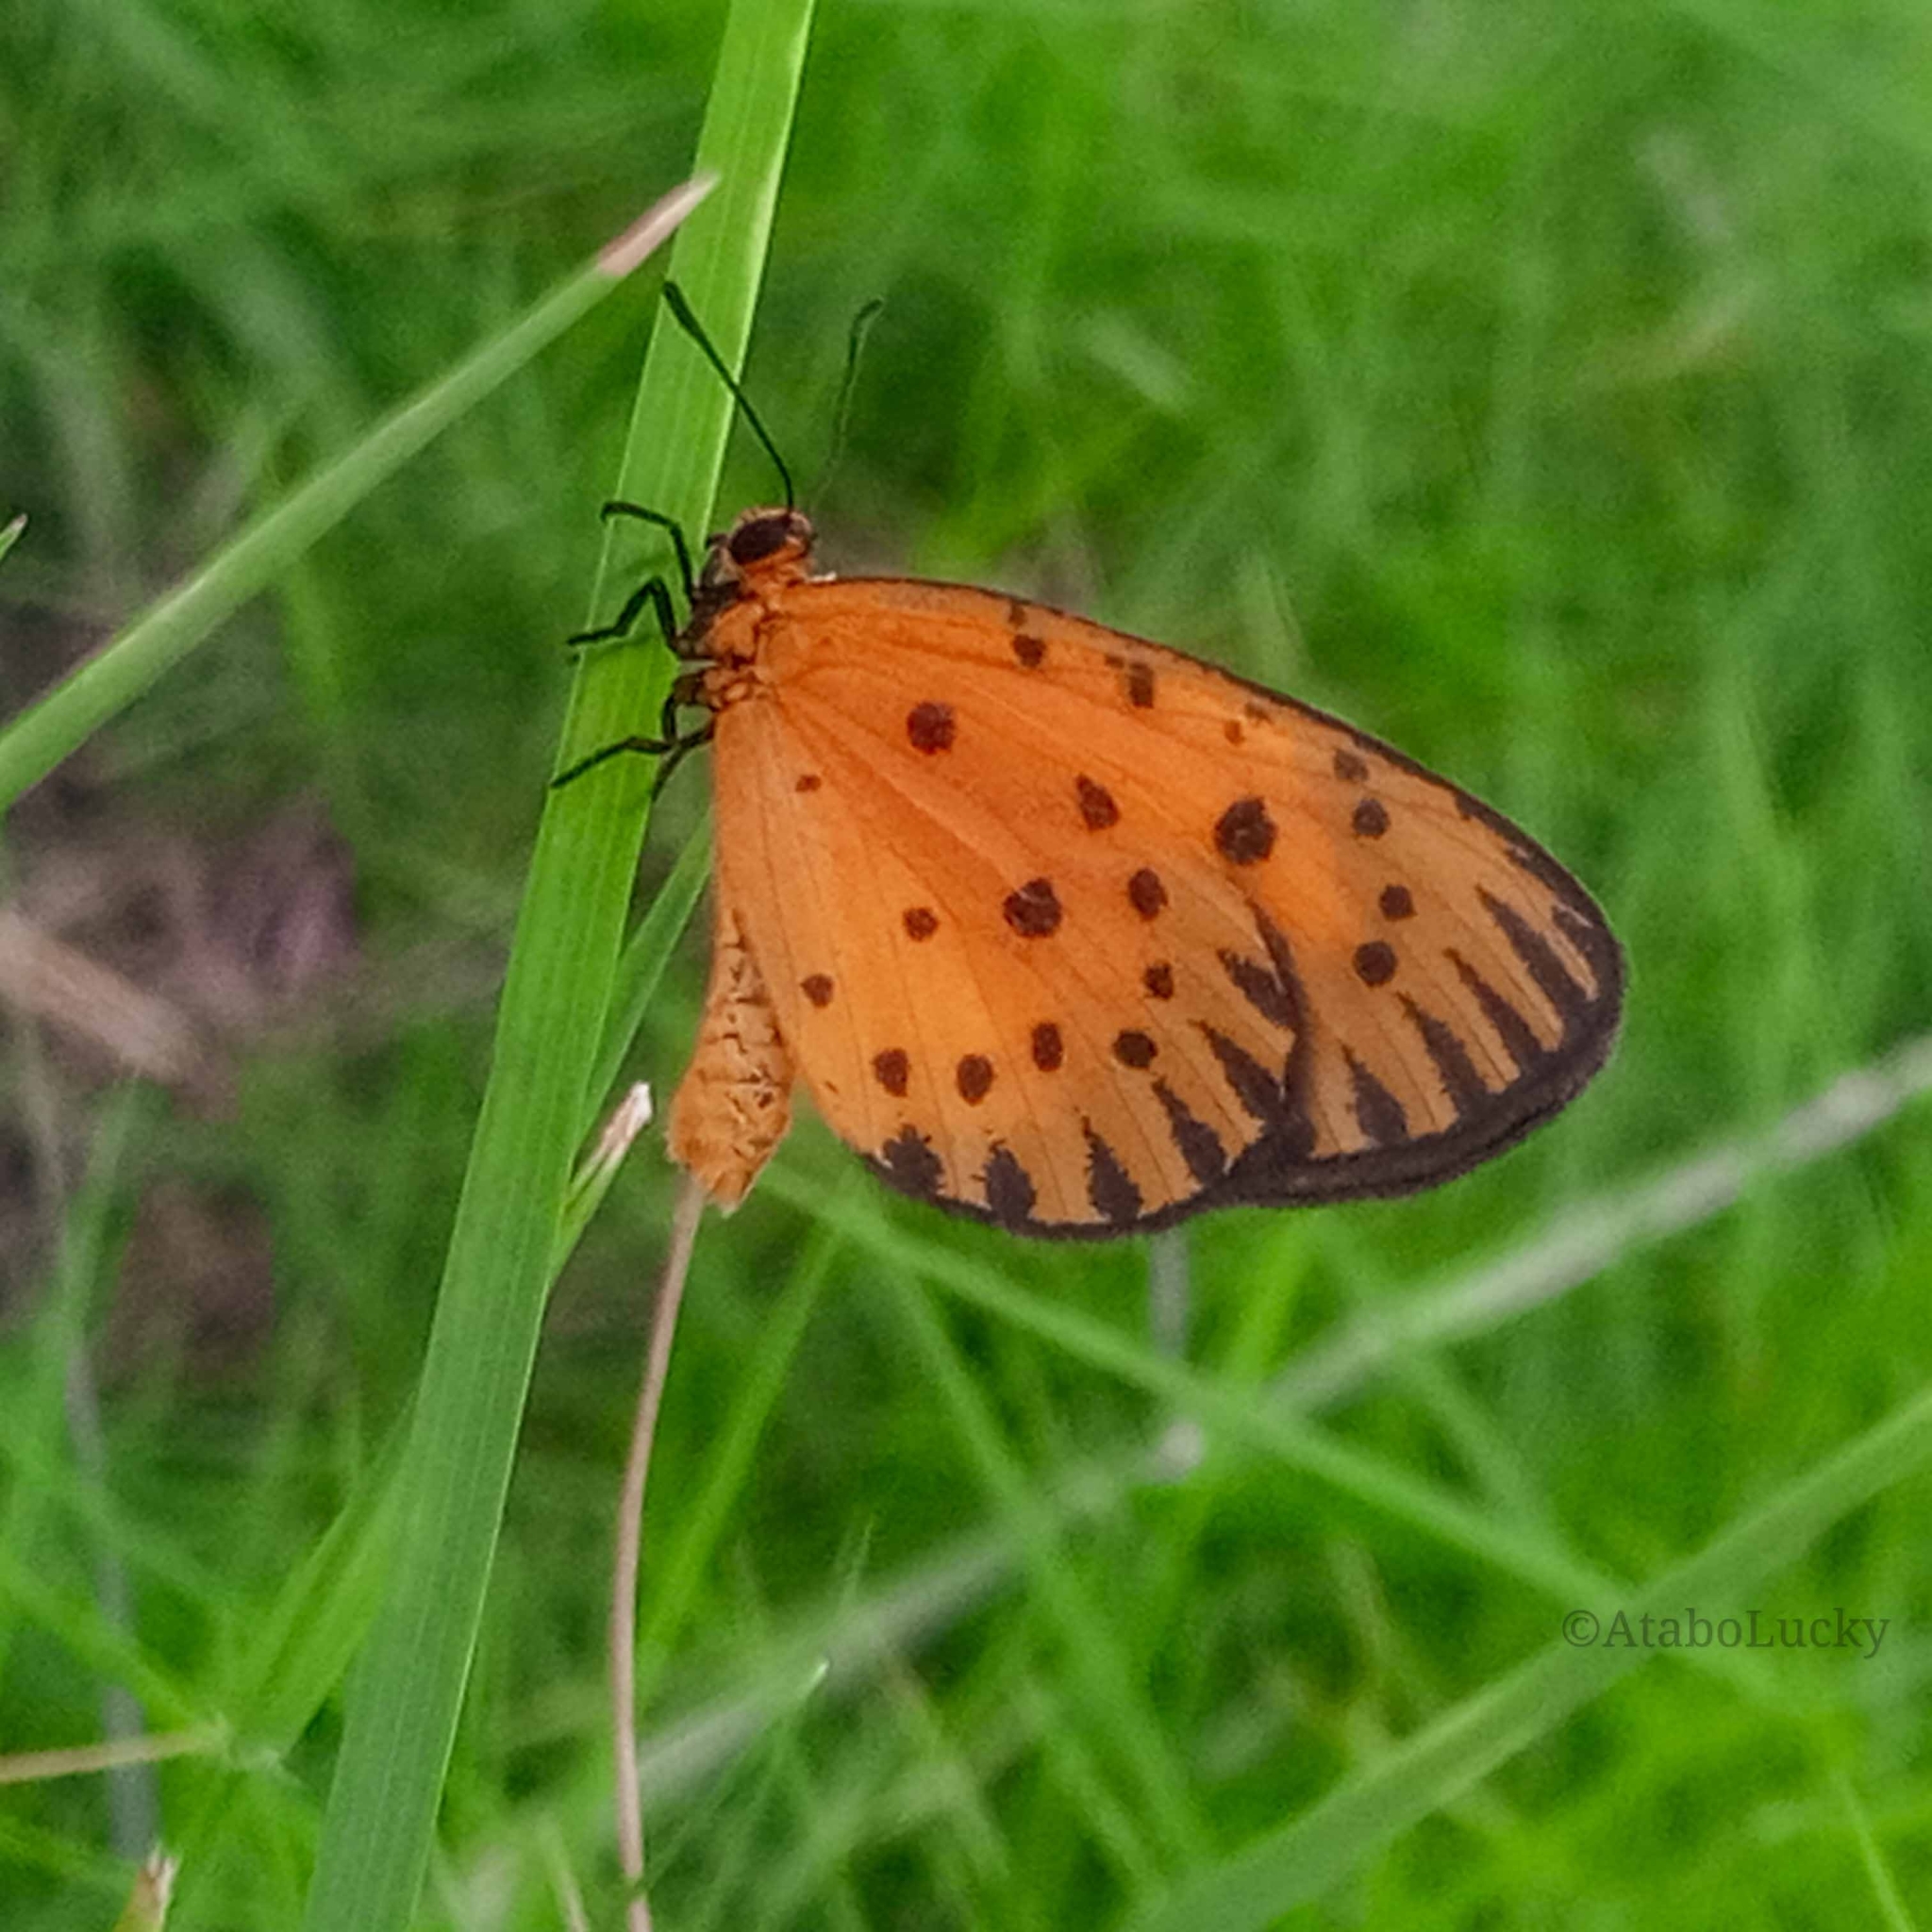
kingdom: Animalia
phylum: Arthropoda
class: Insecta
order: Lepidoptera
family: Lycaenidae
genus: Pentila
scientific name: Pentila pauli
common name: Paul's pentila
